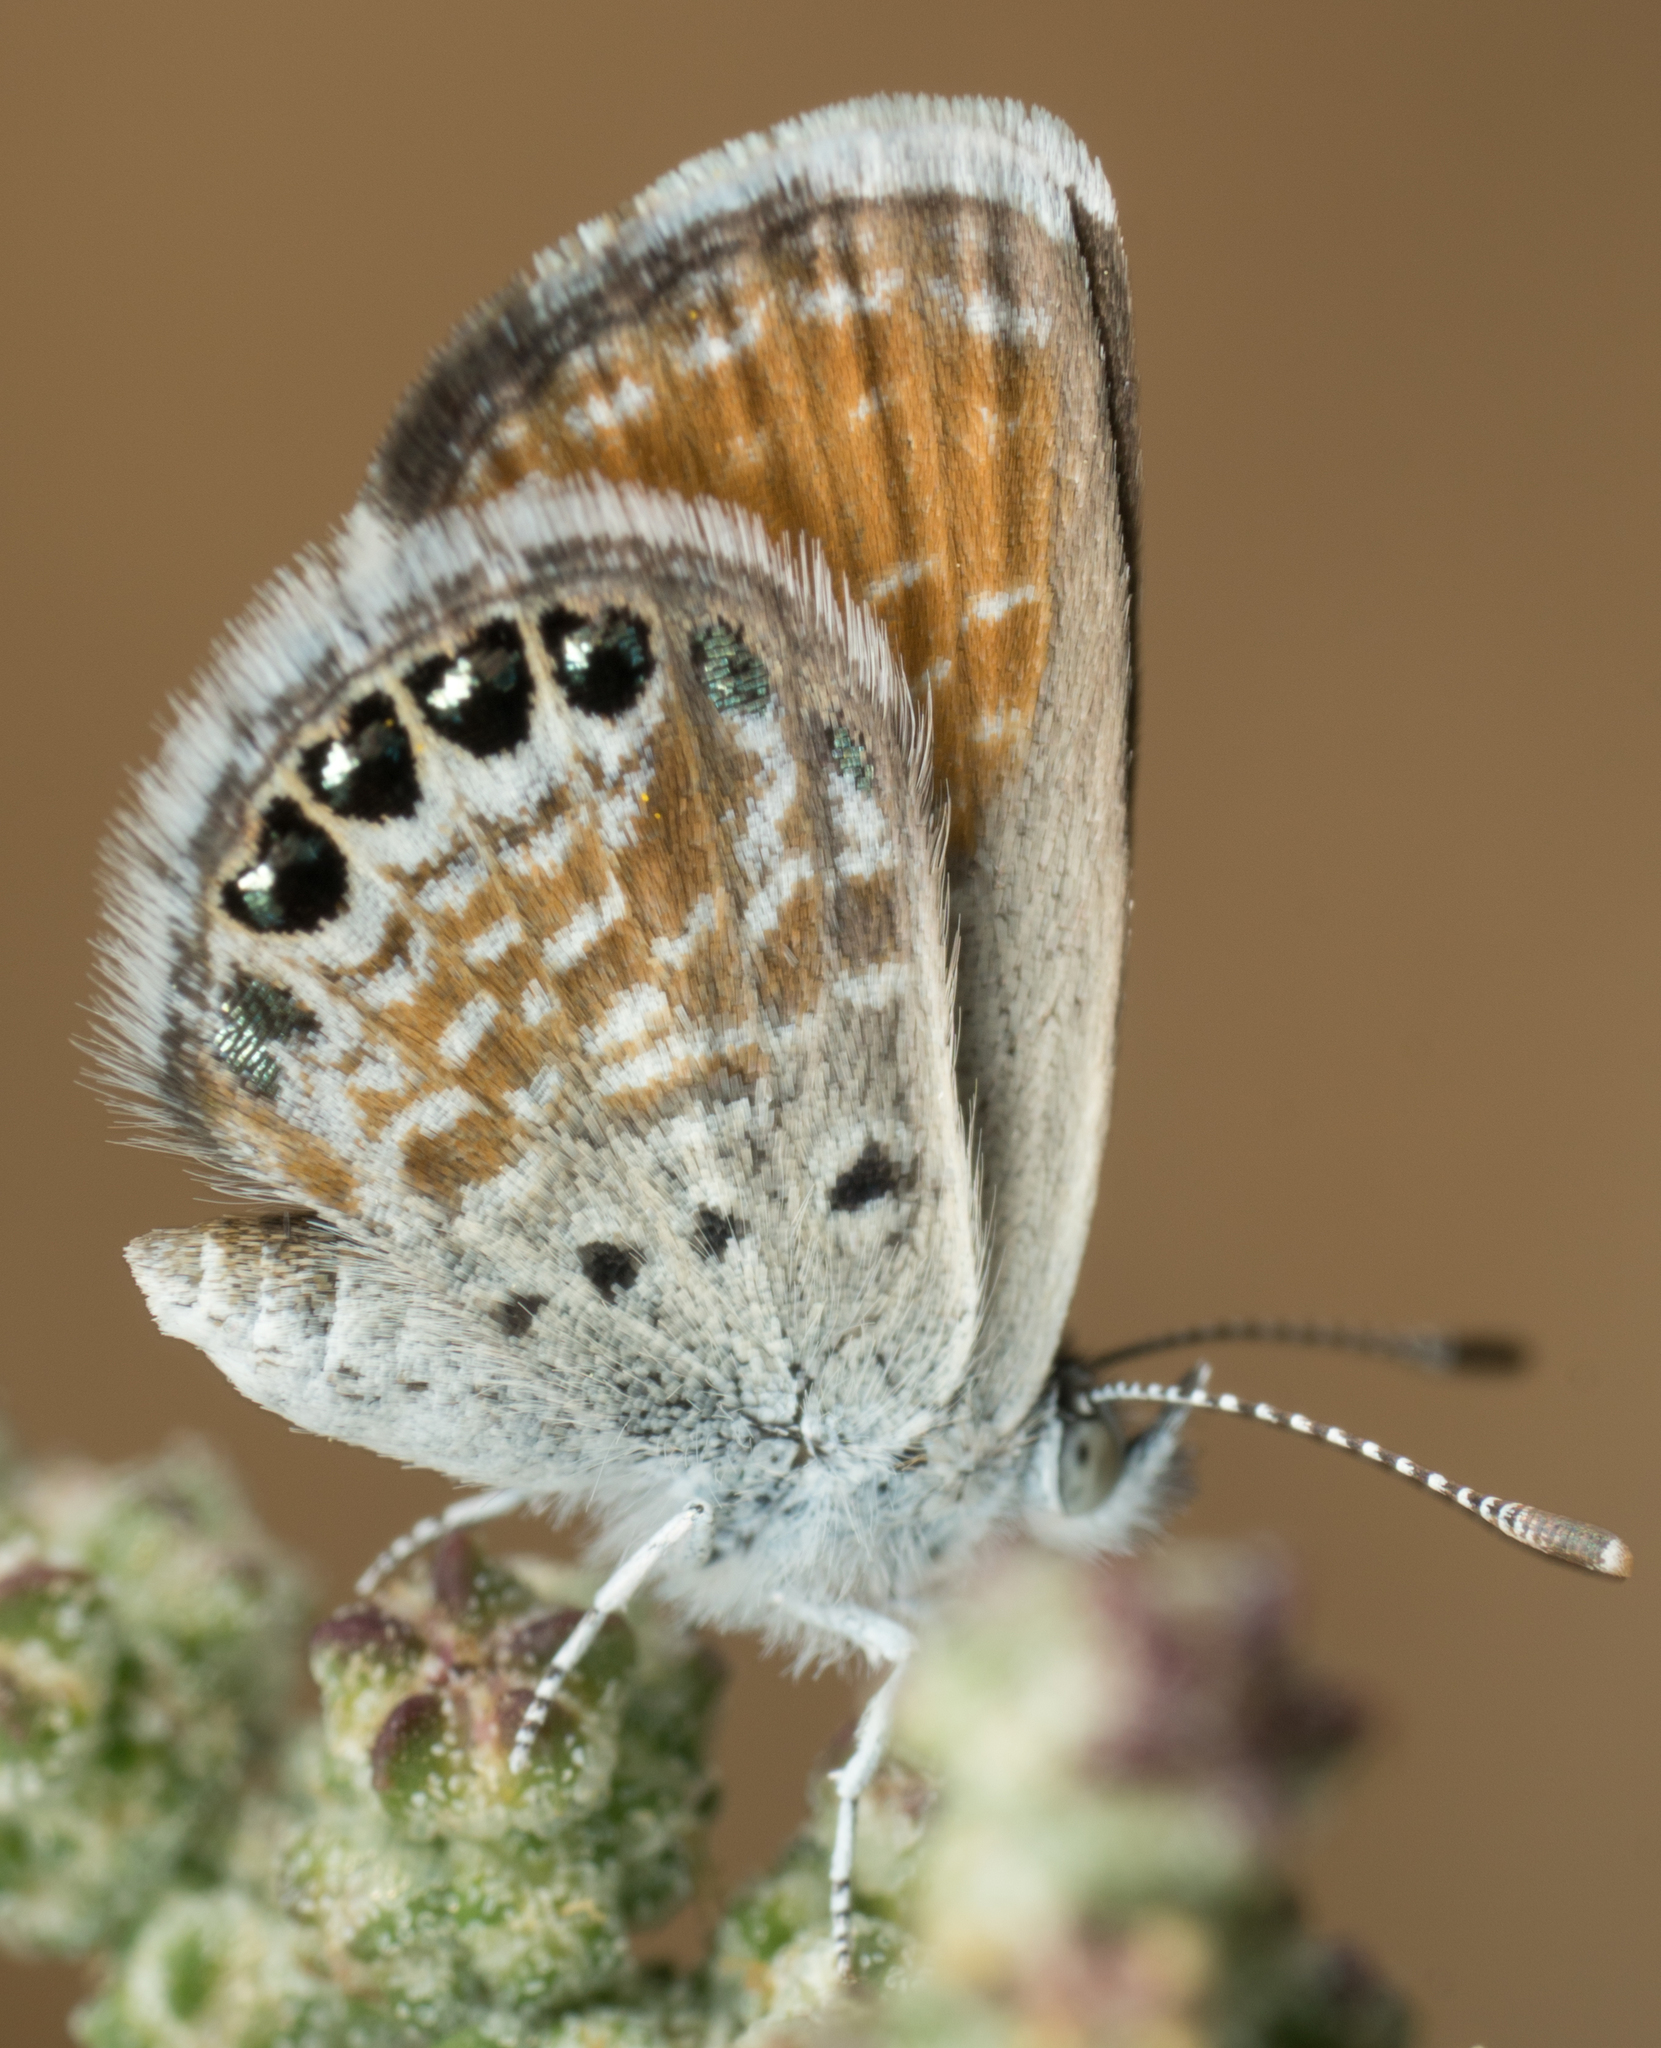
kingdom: Animalia
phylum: Arthropoda
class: Insecta
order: Lepidoptera
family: Lycaenidae
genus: Brephidium
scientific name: Brephidium exilis
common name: Pygmy blue
